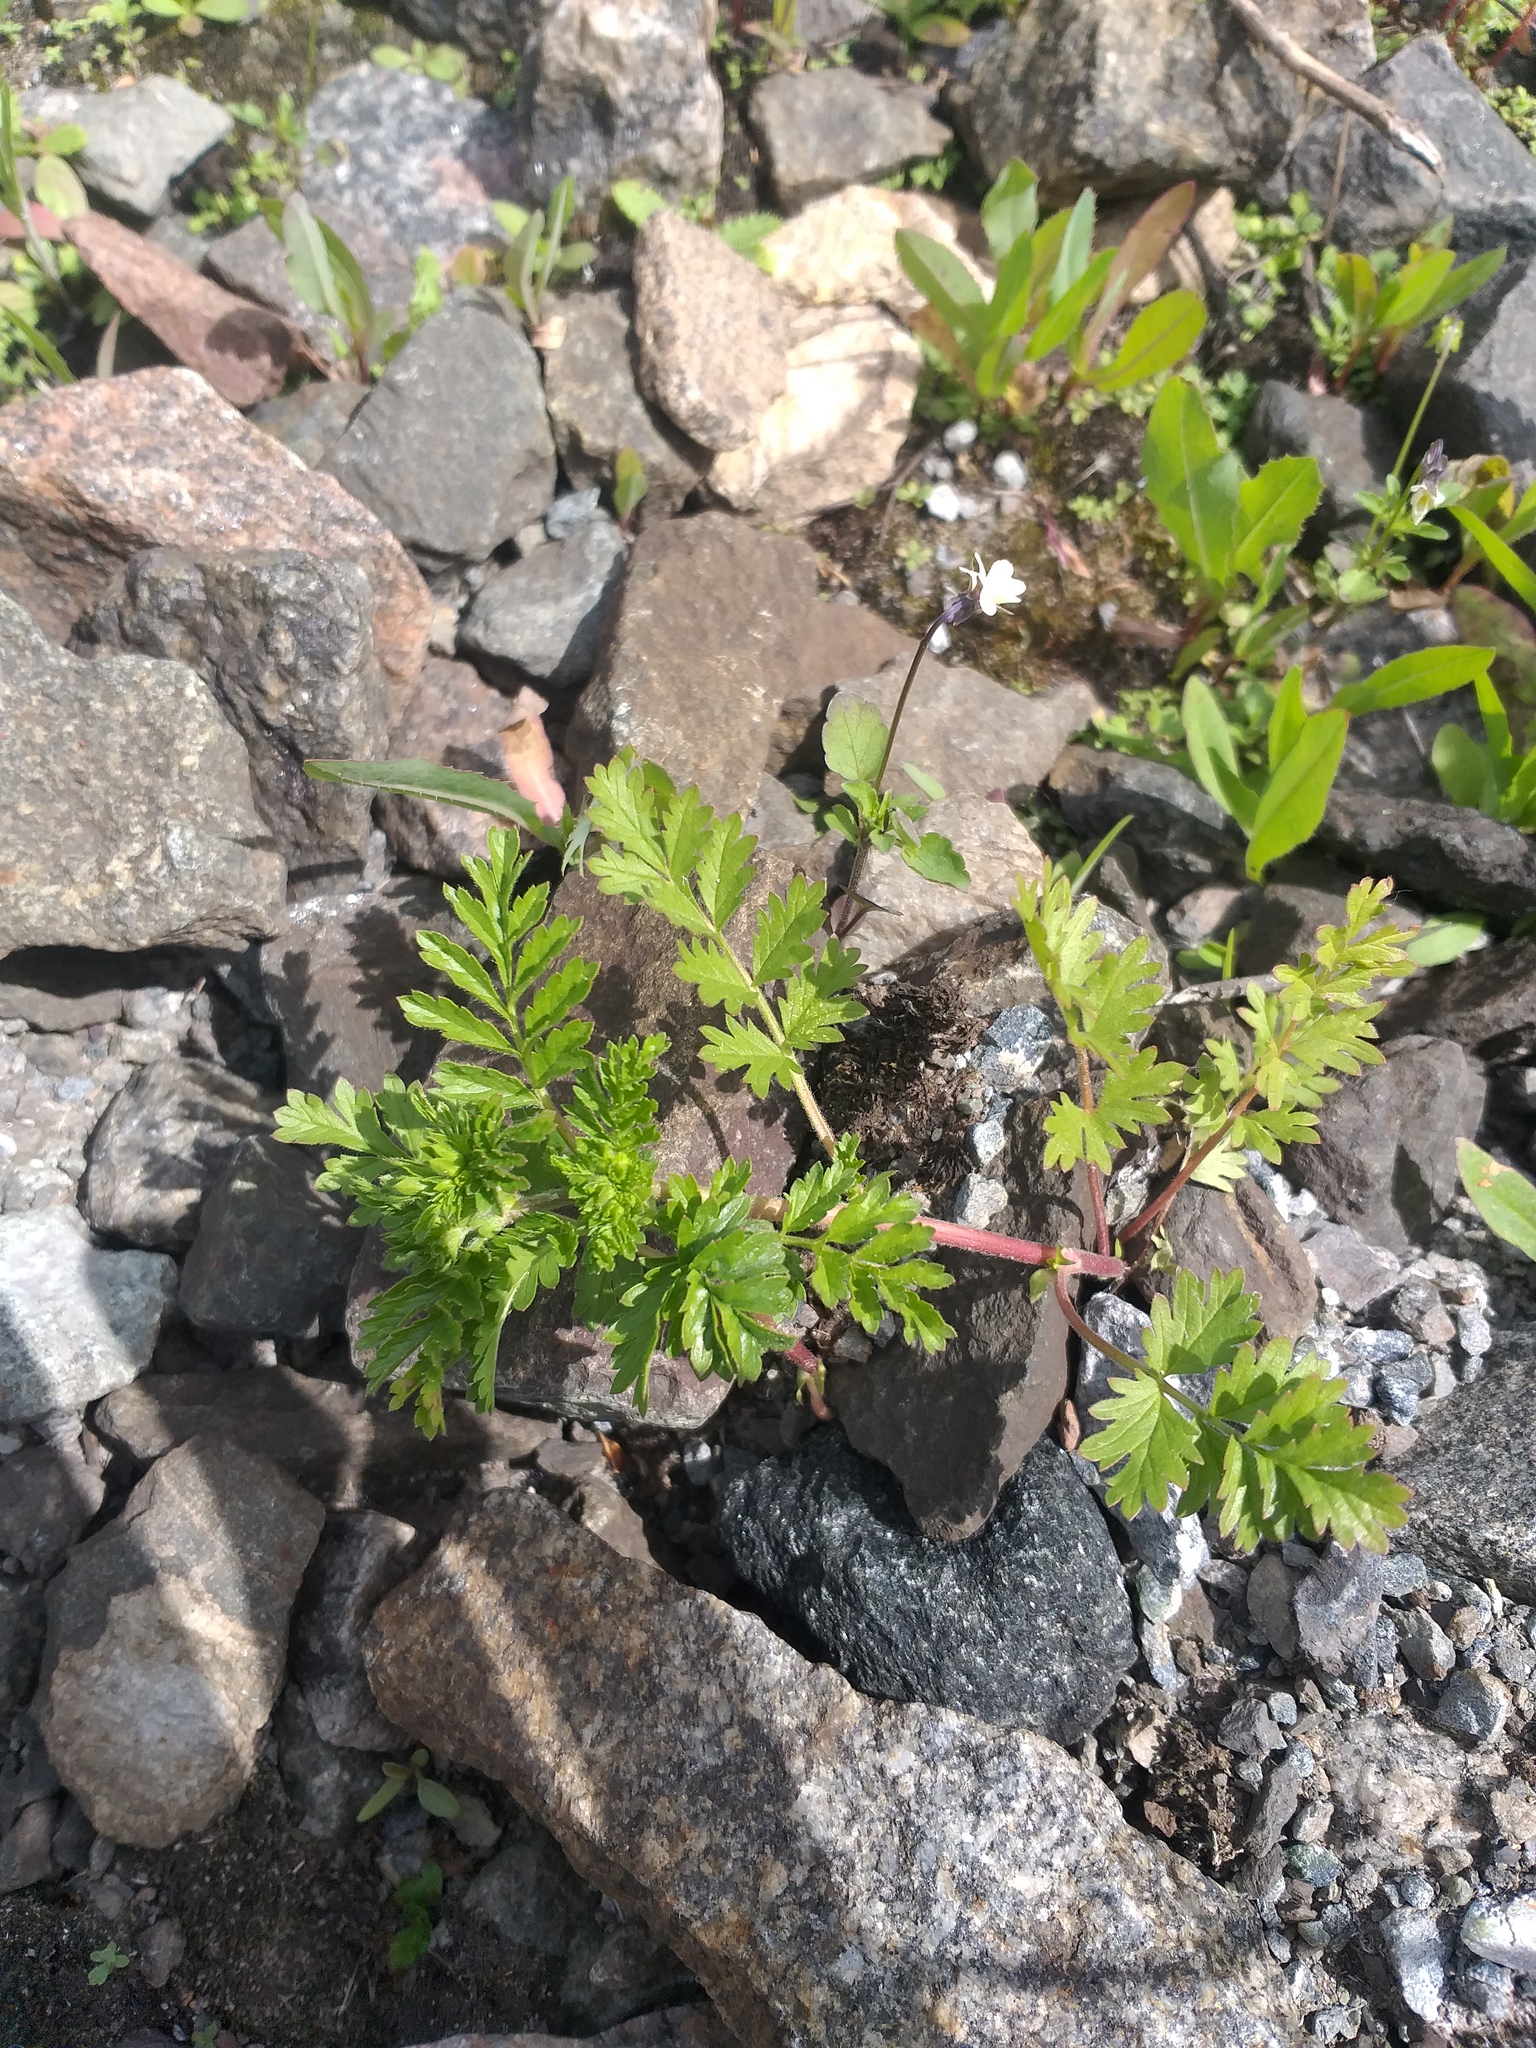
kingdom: Plantae
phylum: Tracheophyta
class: Magnoliopsida
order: Rosales
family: Rosaceae
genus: Potentilla
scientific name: Potentilla supina
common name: Prostrate cinquefoil
